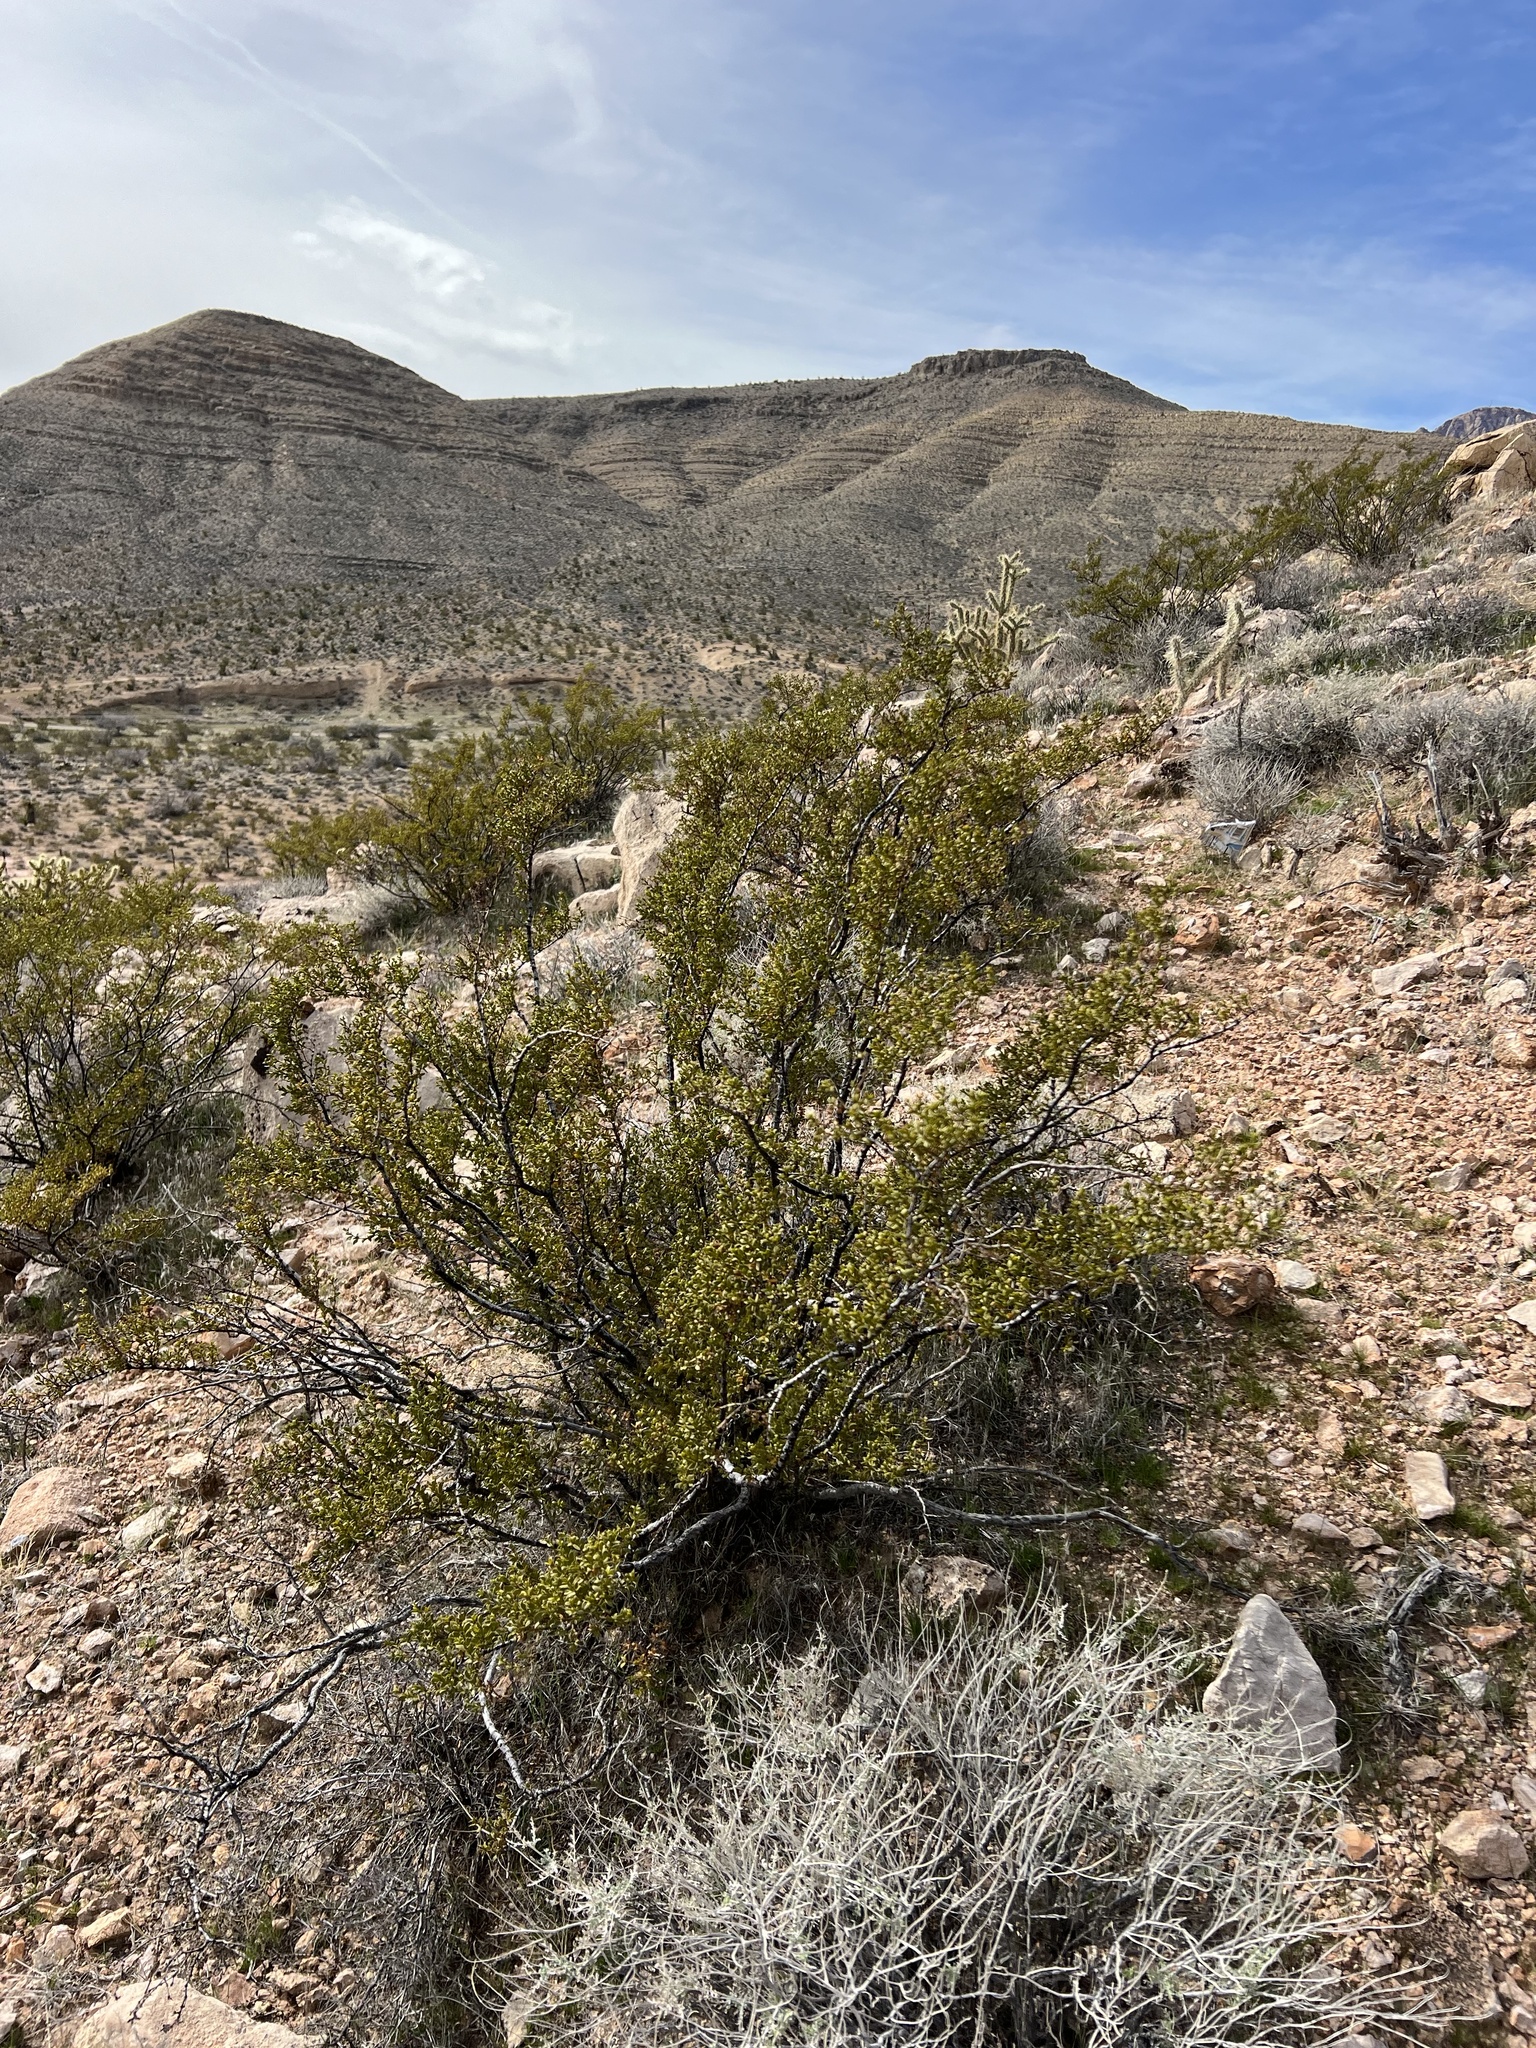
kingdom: Plantae
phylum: Tracheophyta
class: Magnoliopsida
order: Zygophyllales
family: Zygophyllaceae
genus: Larrea
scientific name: Larrea tridentata
